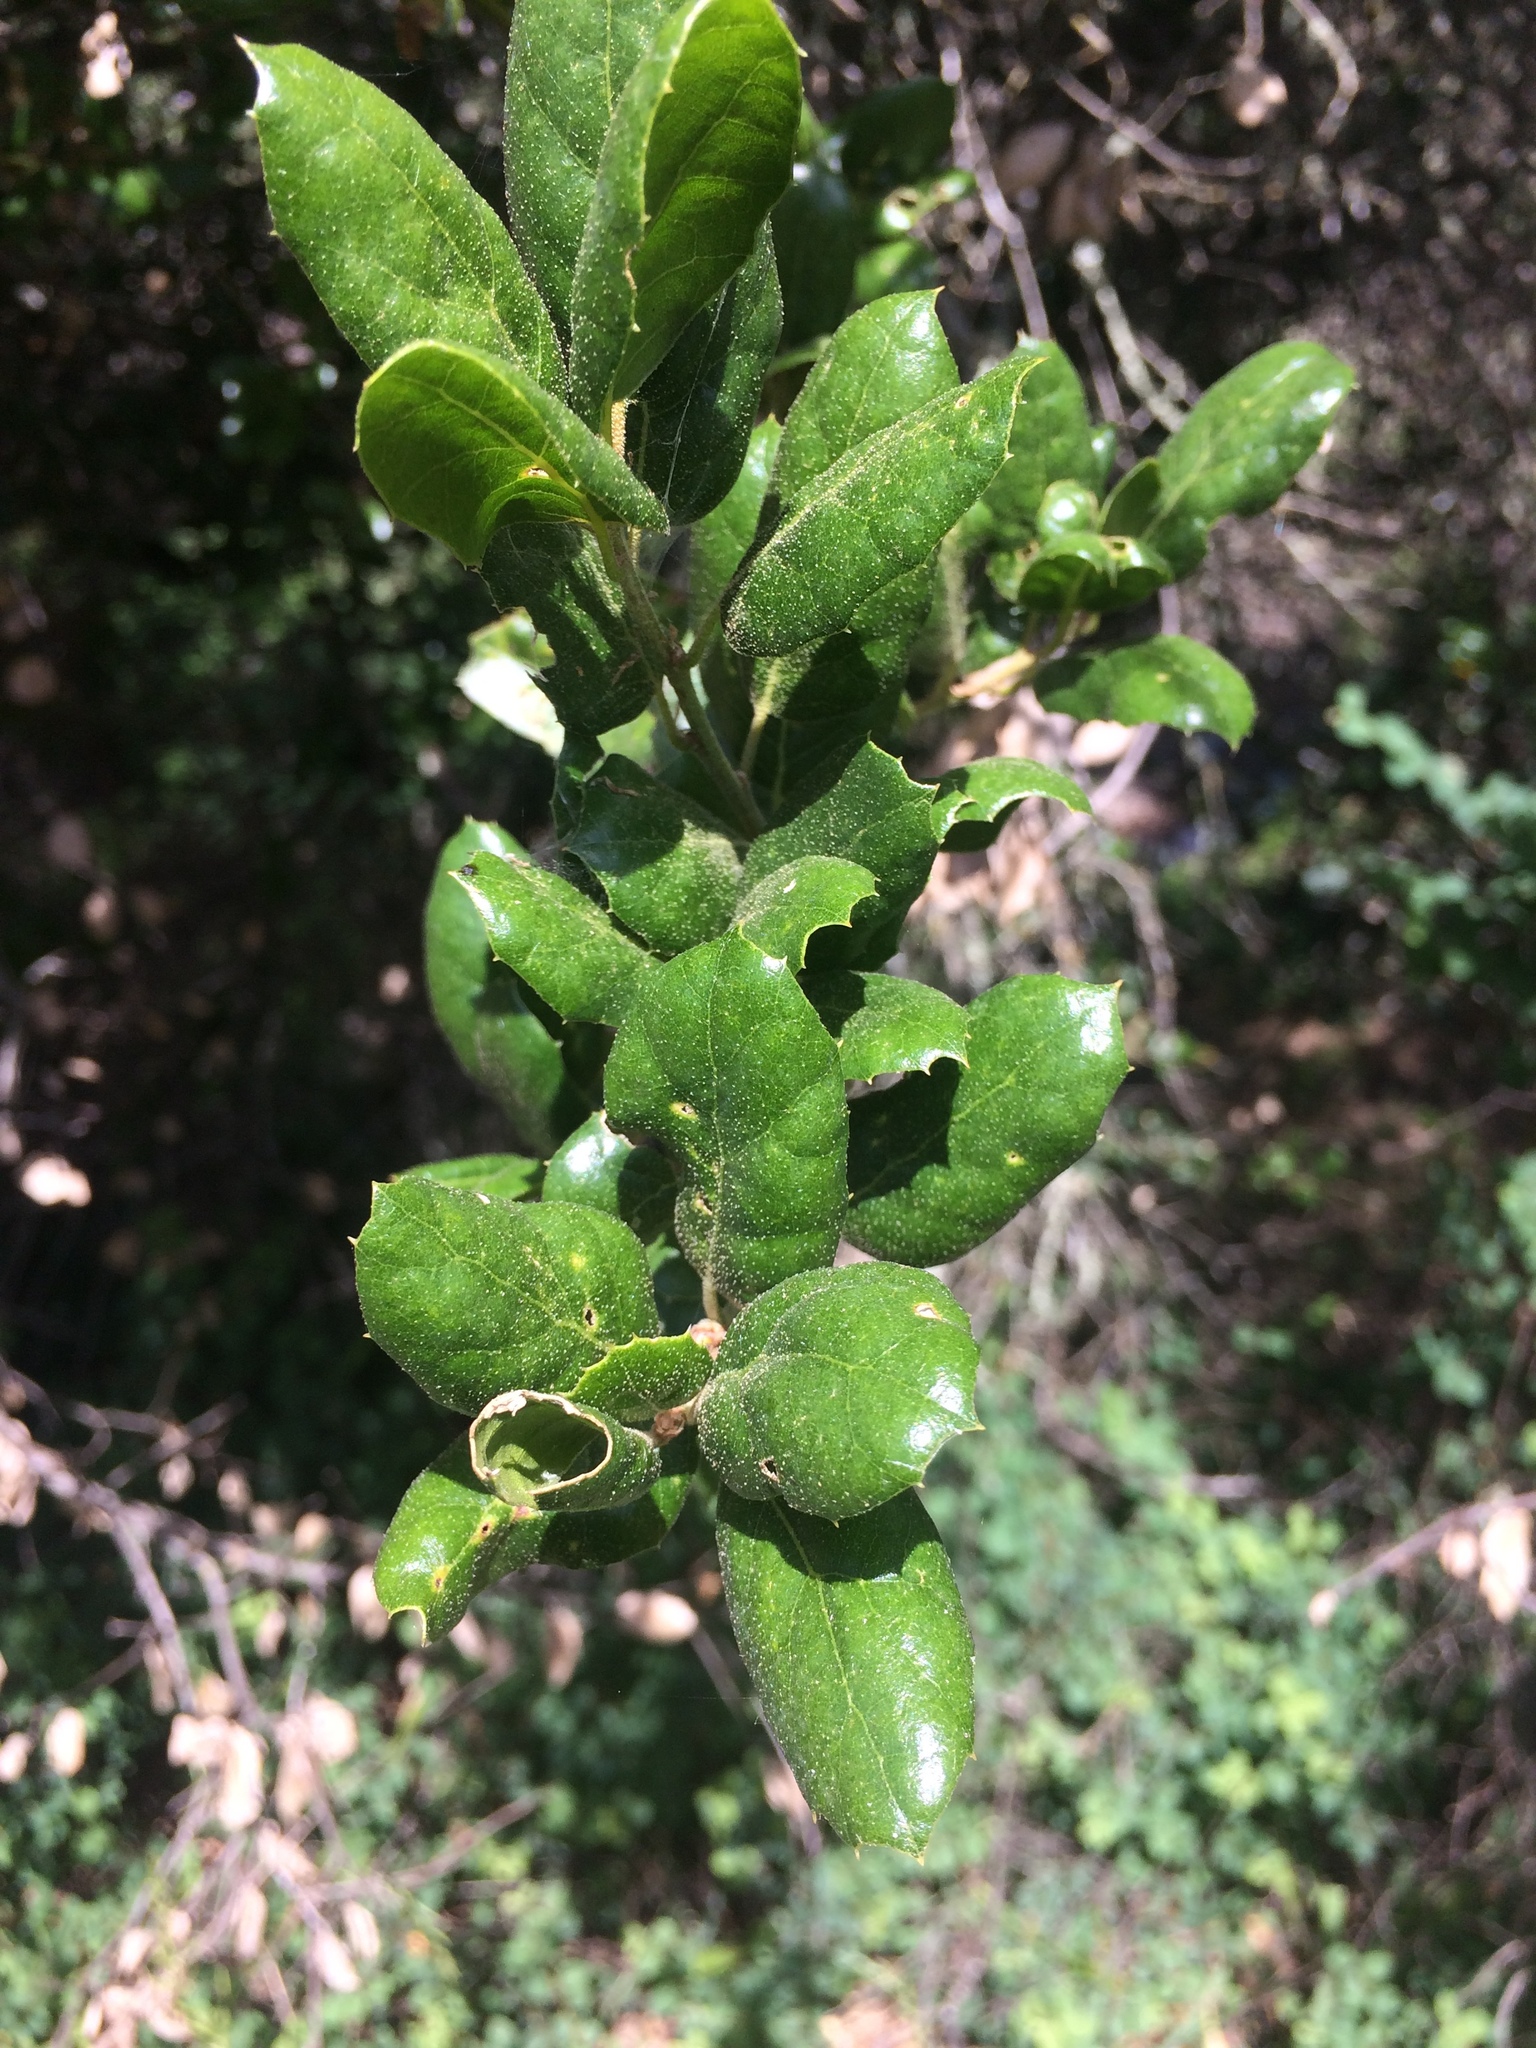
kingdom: Plantae
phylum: Tracheophyta
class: Magnoliopsida
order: Fagales
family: Fagaceae
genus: Quercus
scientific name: Quercus agrifolia
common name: California live oak
